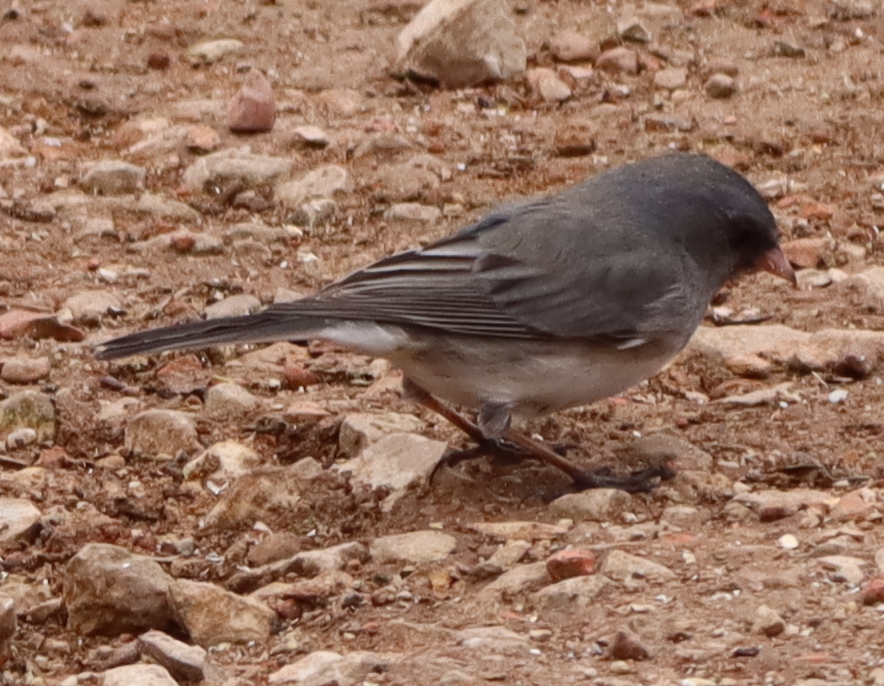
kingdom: Animalia
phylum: Chordata
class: Aves
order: Passeriformes
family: Passerellidae
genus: Junco
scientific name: Junco hyemalis
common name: Dark-eyed junco
